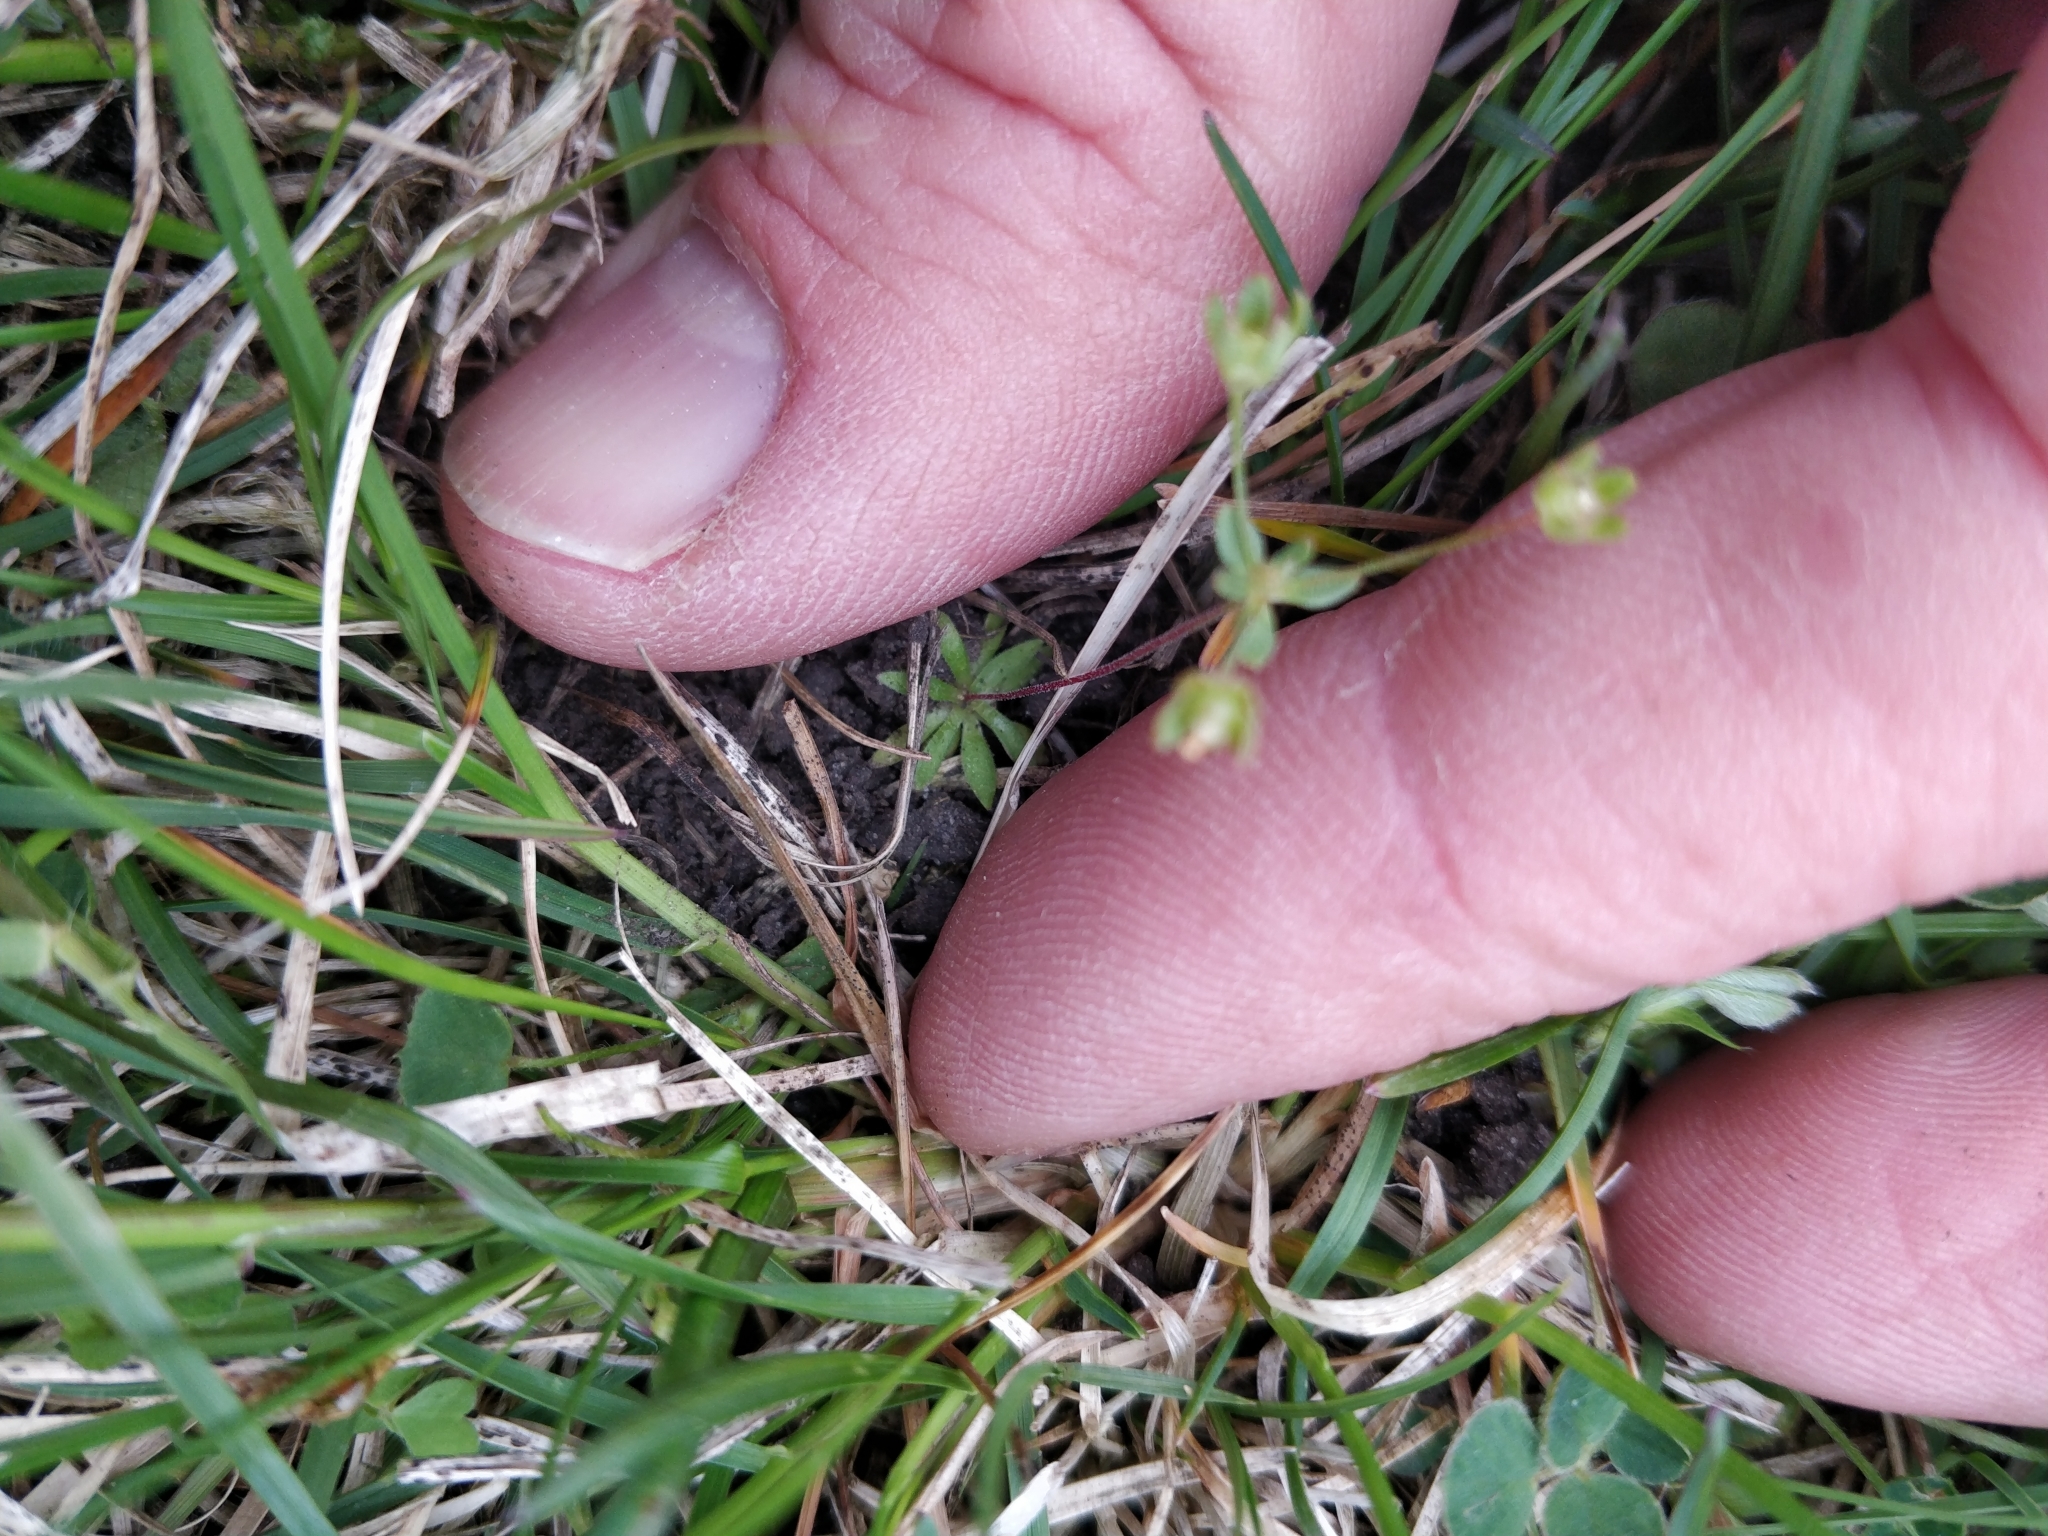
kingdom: Plantae
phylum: Tracheophyta
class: Magnoliopsida
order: Ericales
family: Primulaceae
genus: Androsace
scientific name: Androsace occidentalis
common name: West rock-jasmine
